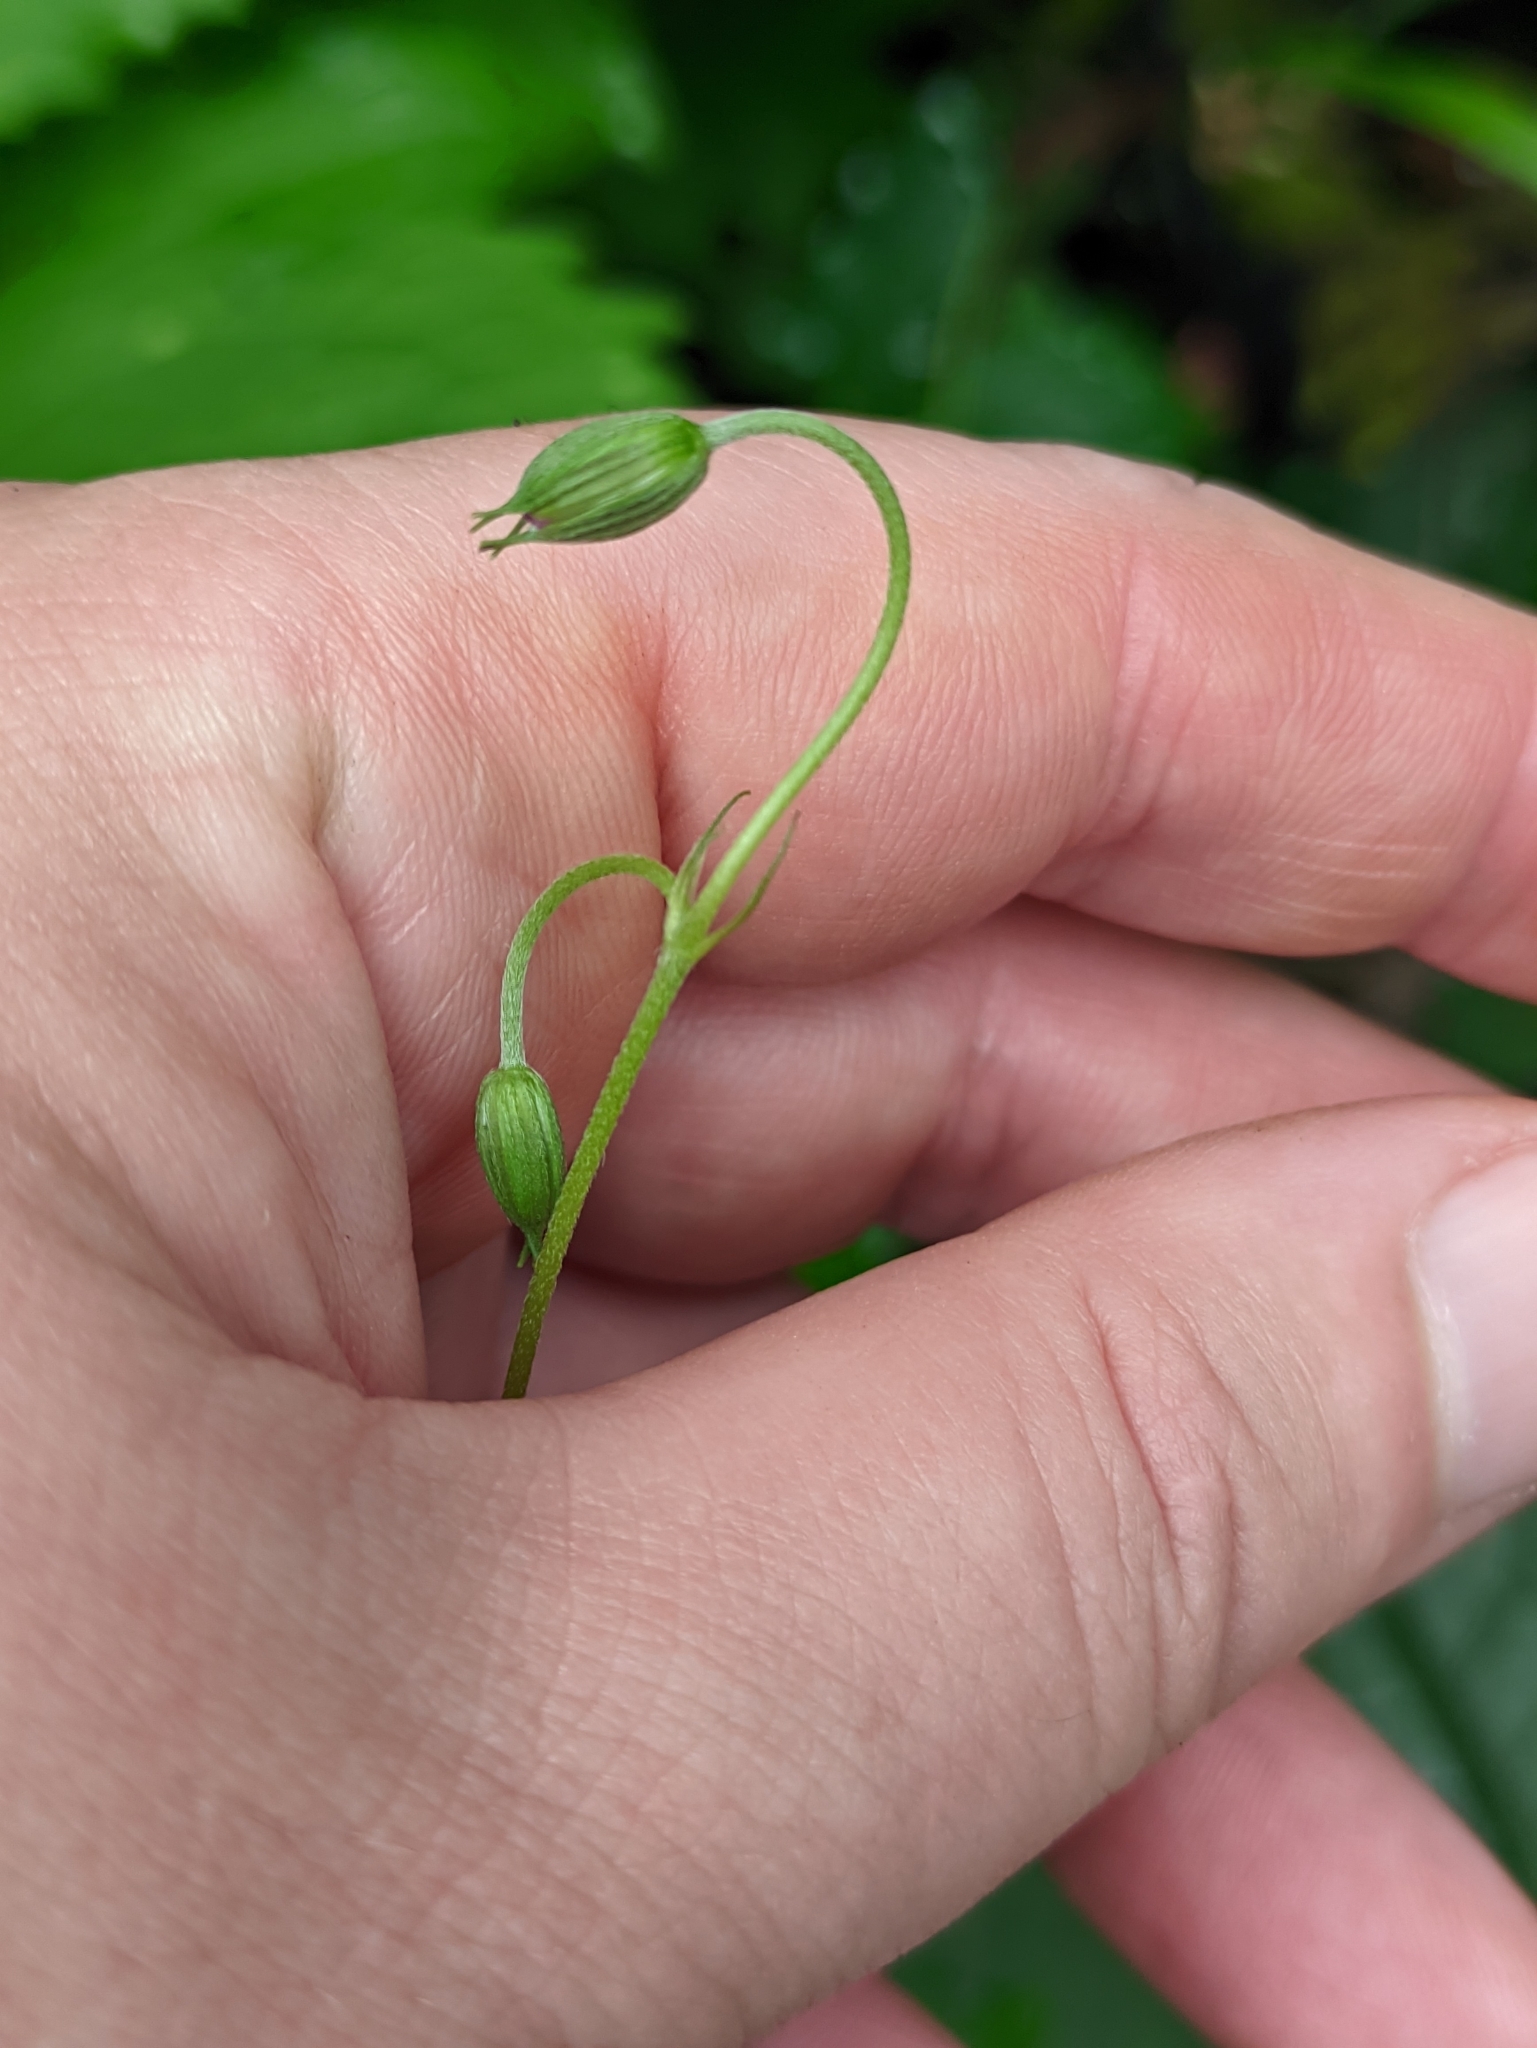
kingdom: Plantae
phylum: Tracheophyta
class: Magnoliopsida
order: Geraniales
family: Geraniaceae
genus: Geranium
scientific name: Geranium palustre
